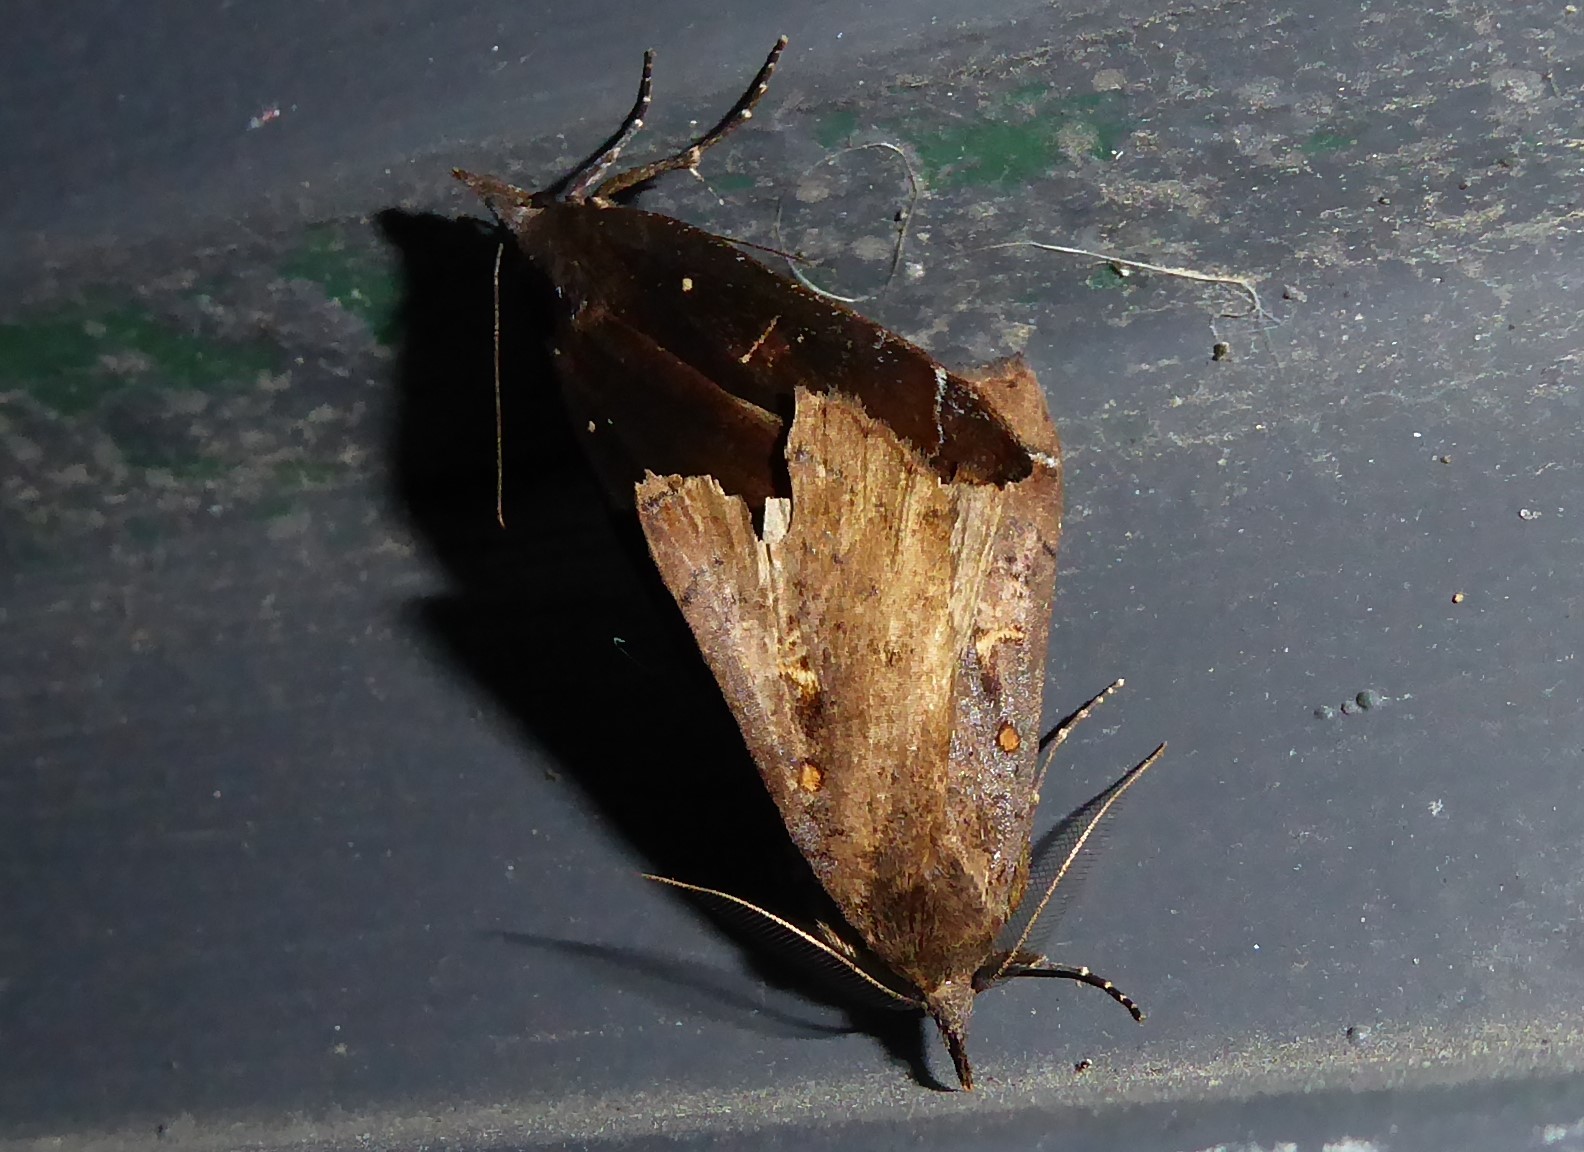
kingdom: Animalia
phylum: Arthropoda
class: Insecta
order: Lepidoptera
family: Erebidae
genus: Rhapsa
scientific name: Rhapsa scotosialis
